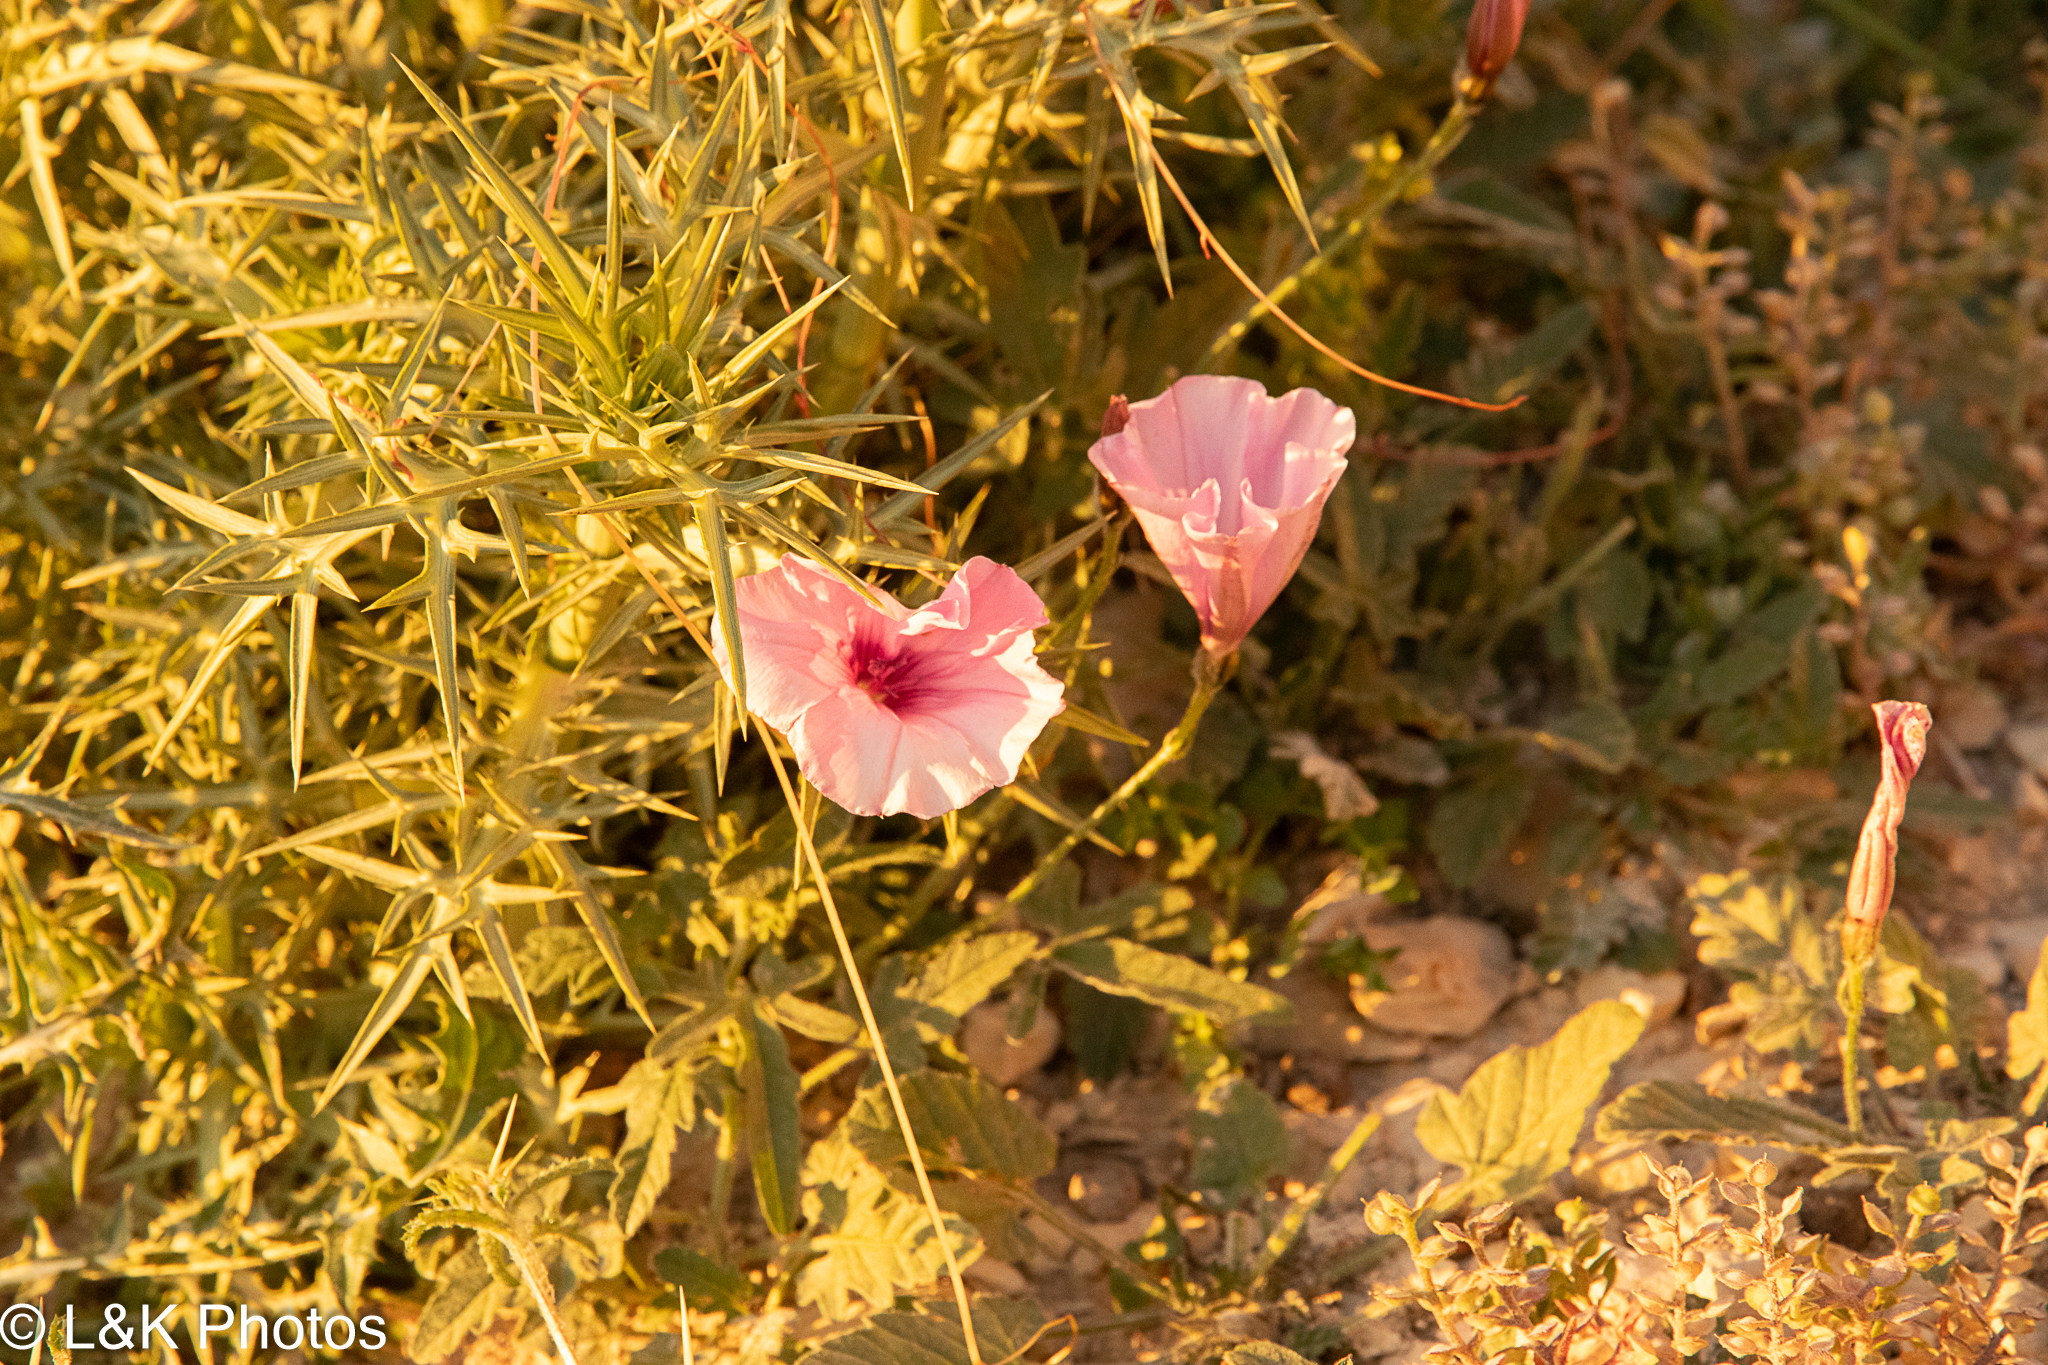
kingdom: Plantae
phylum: Tracheophyta
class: Magnoliopsida
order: Solanales
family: Convolvulaceae
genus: Convolvulus
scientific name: Convolvulus althaeoides
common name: Mallow bindweed
